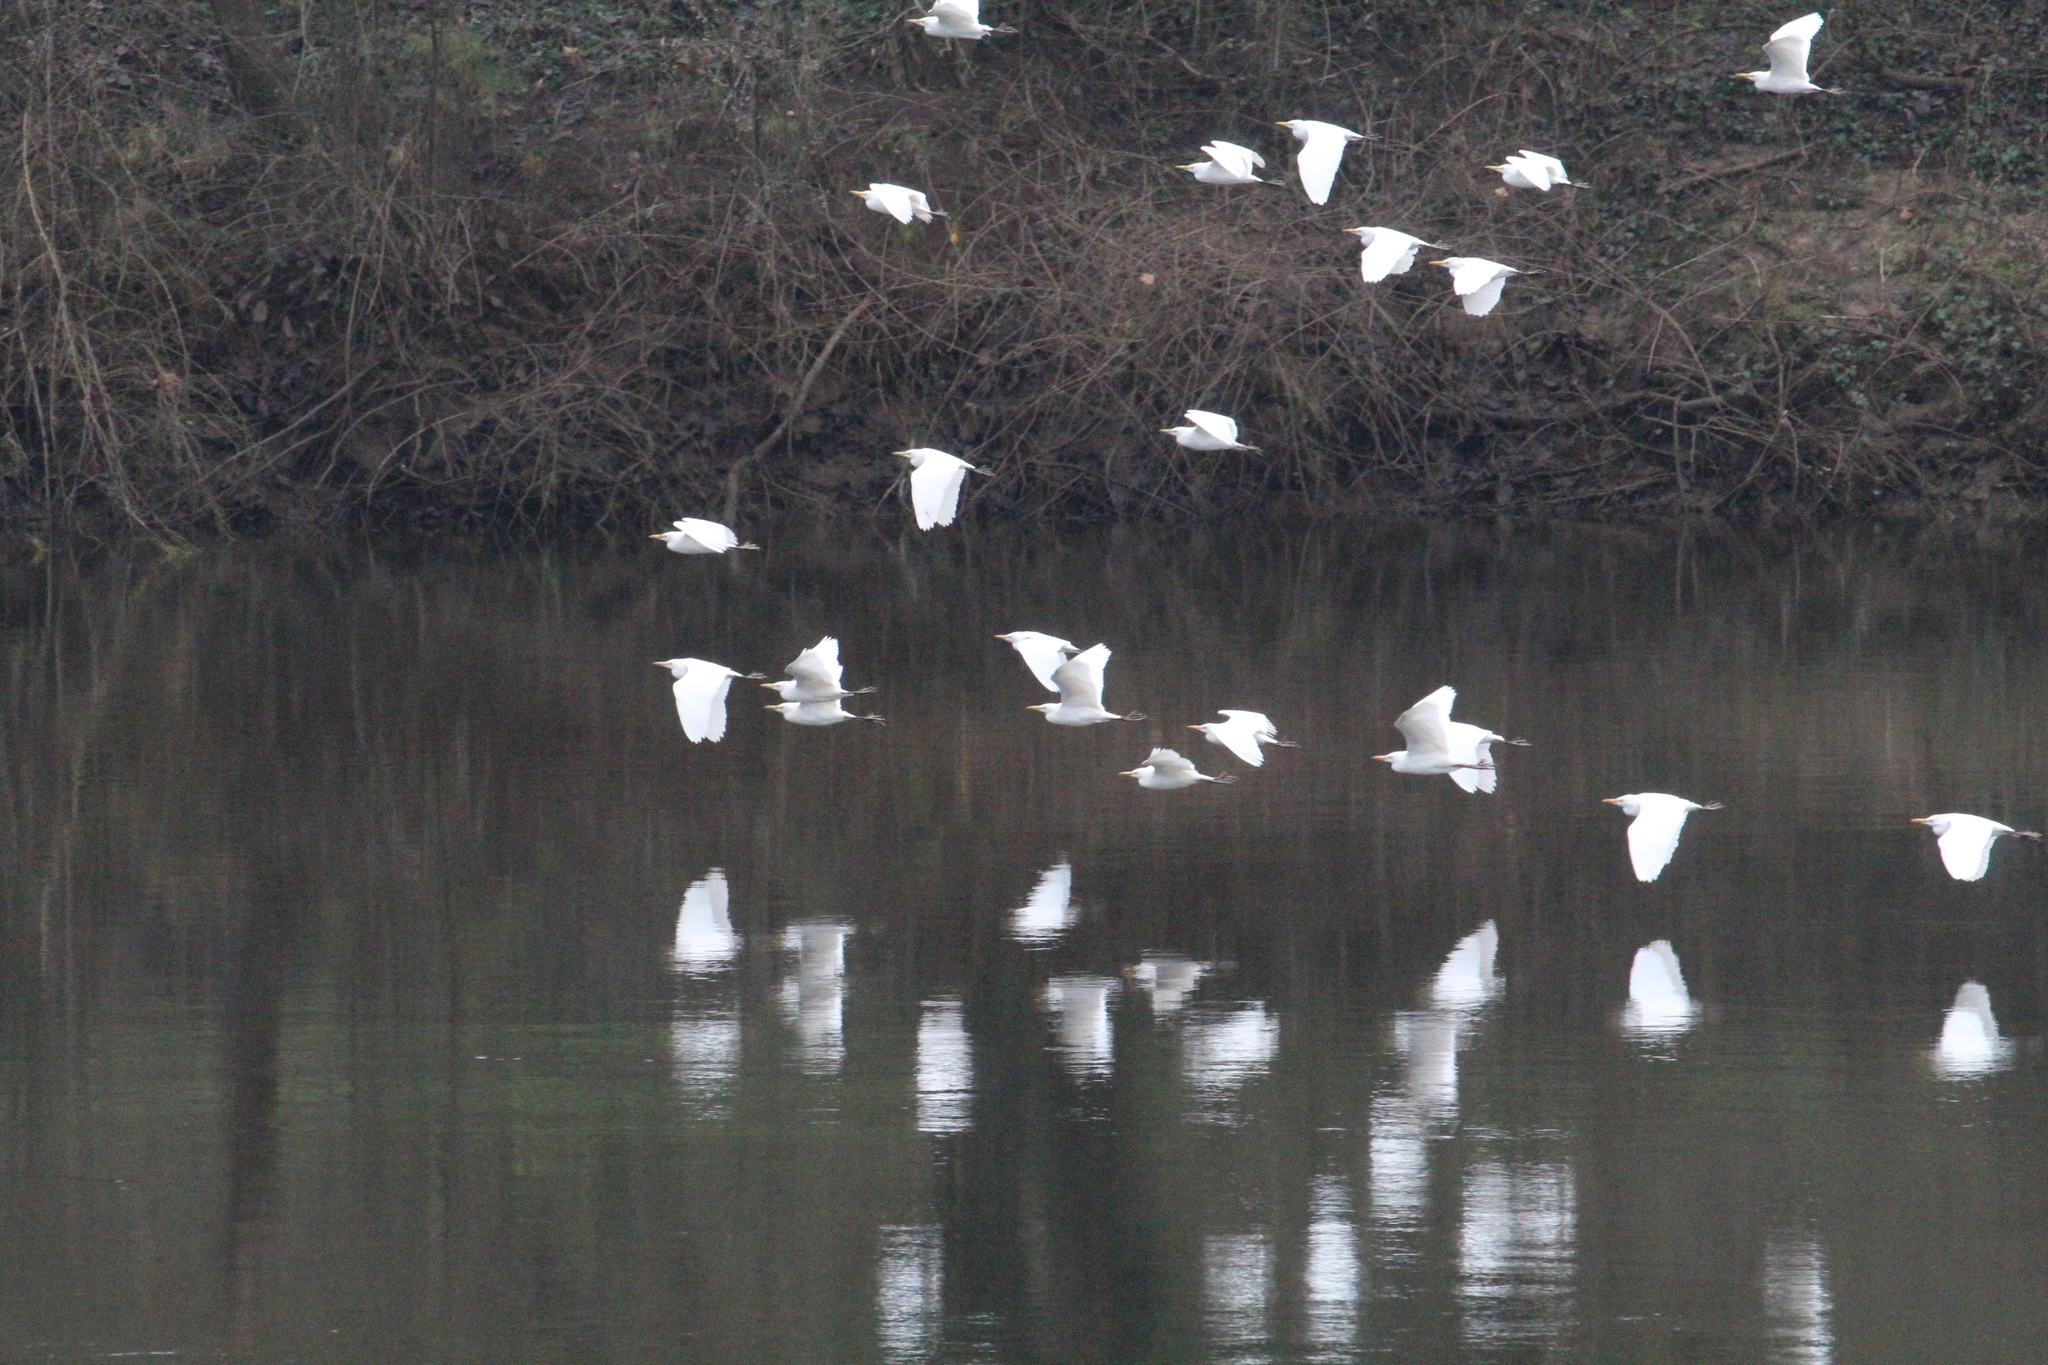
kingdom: Animalia
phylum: Chordata
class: Aves
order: Pelecaniformes
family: Ardeidae
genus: Bubulcus
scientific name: Bubulcus ibis
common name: Cattle egret
